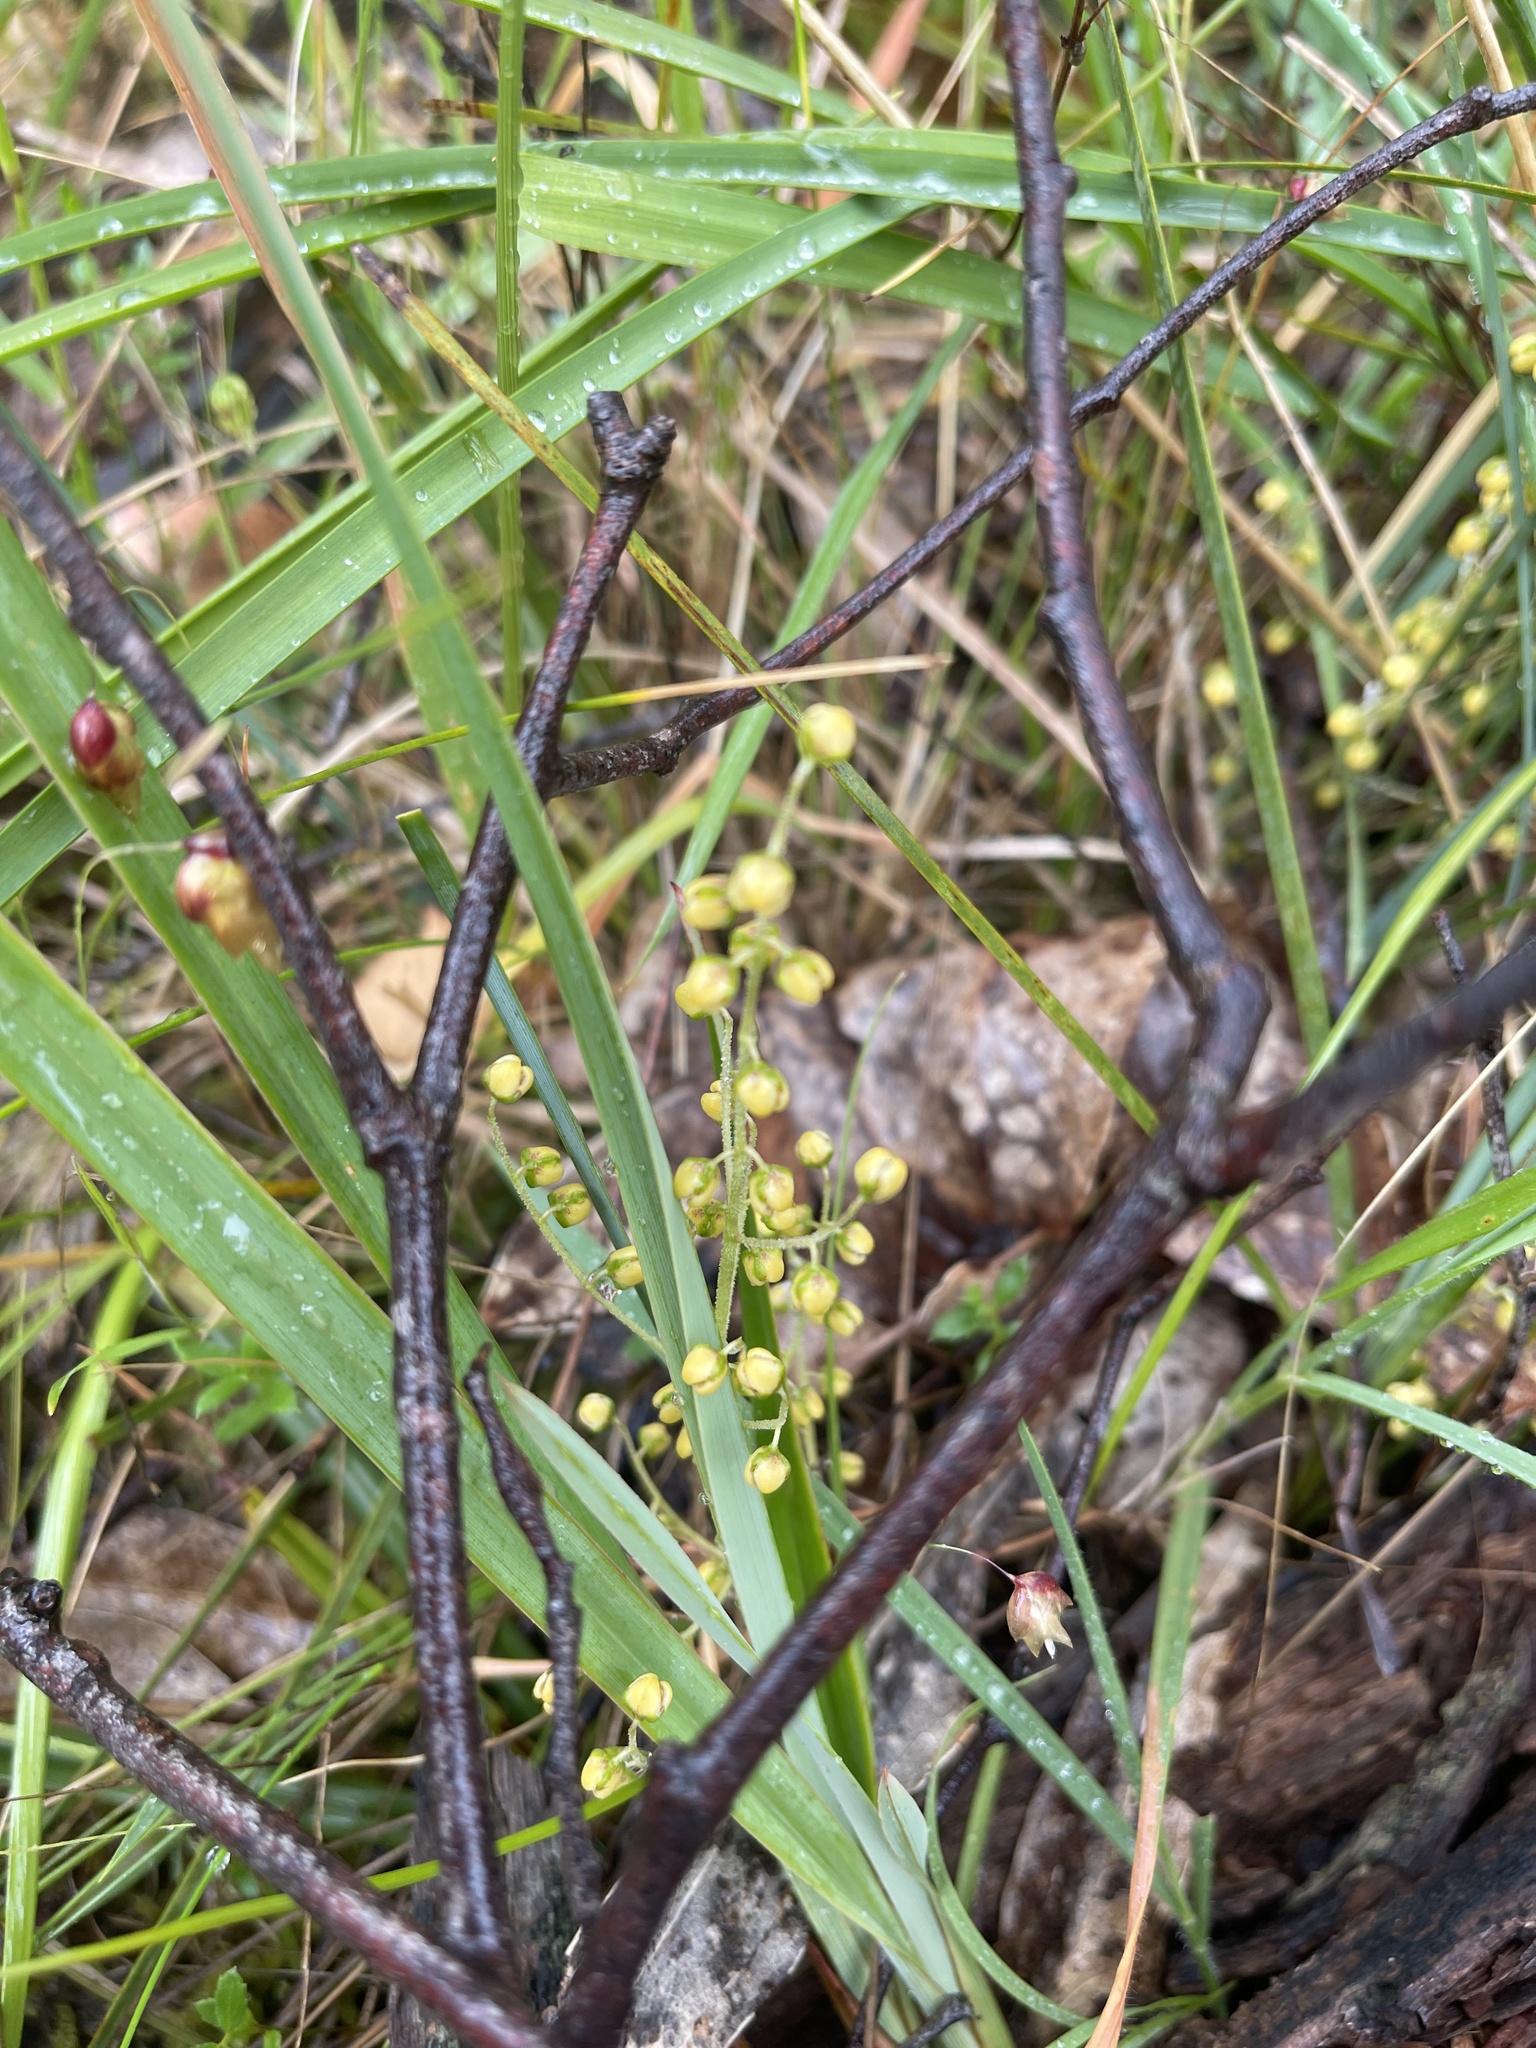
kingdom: Plantae
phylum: Tracheophyta
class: Liliopsida
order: Asparagales
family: Asparagaceae
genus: Lomandra
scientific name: Lomandra filiformis
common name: Wattle mat-rush
